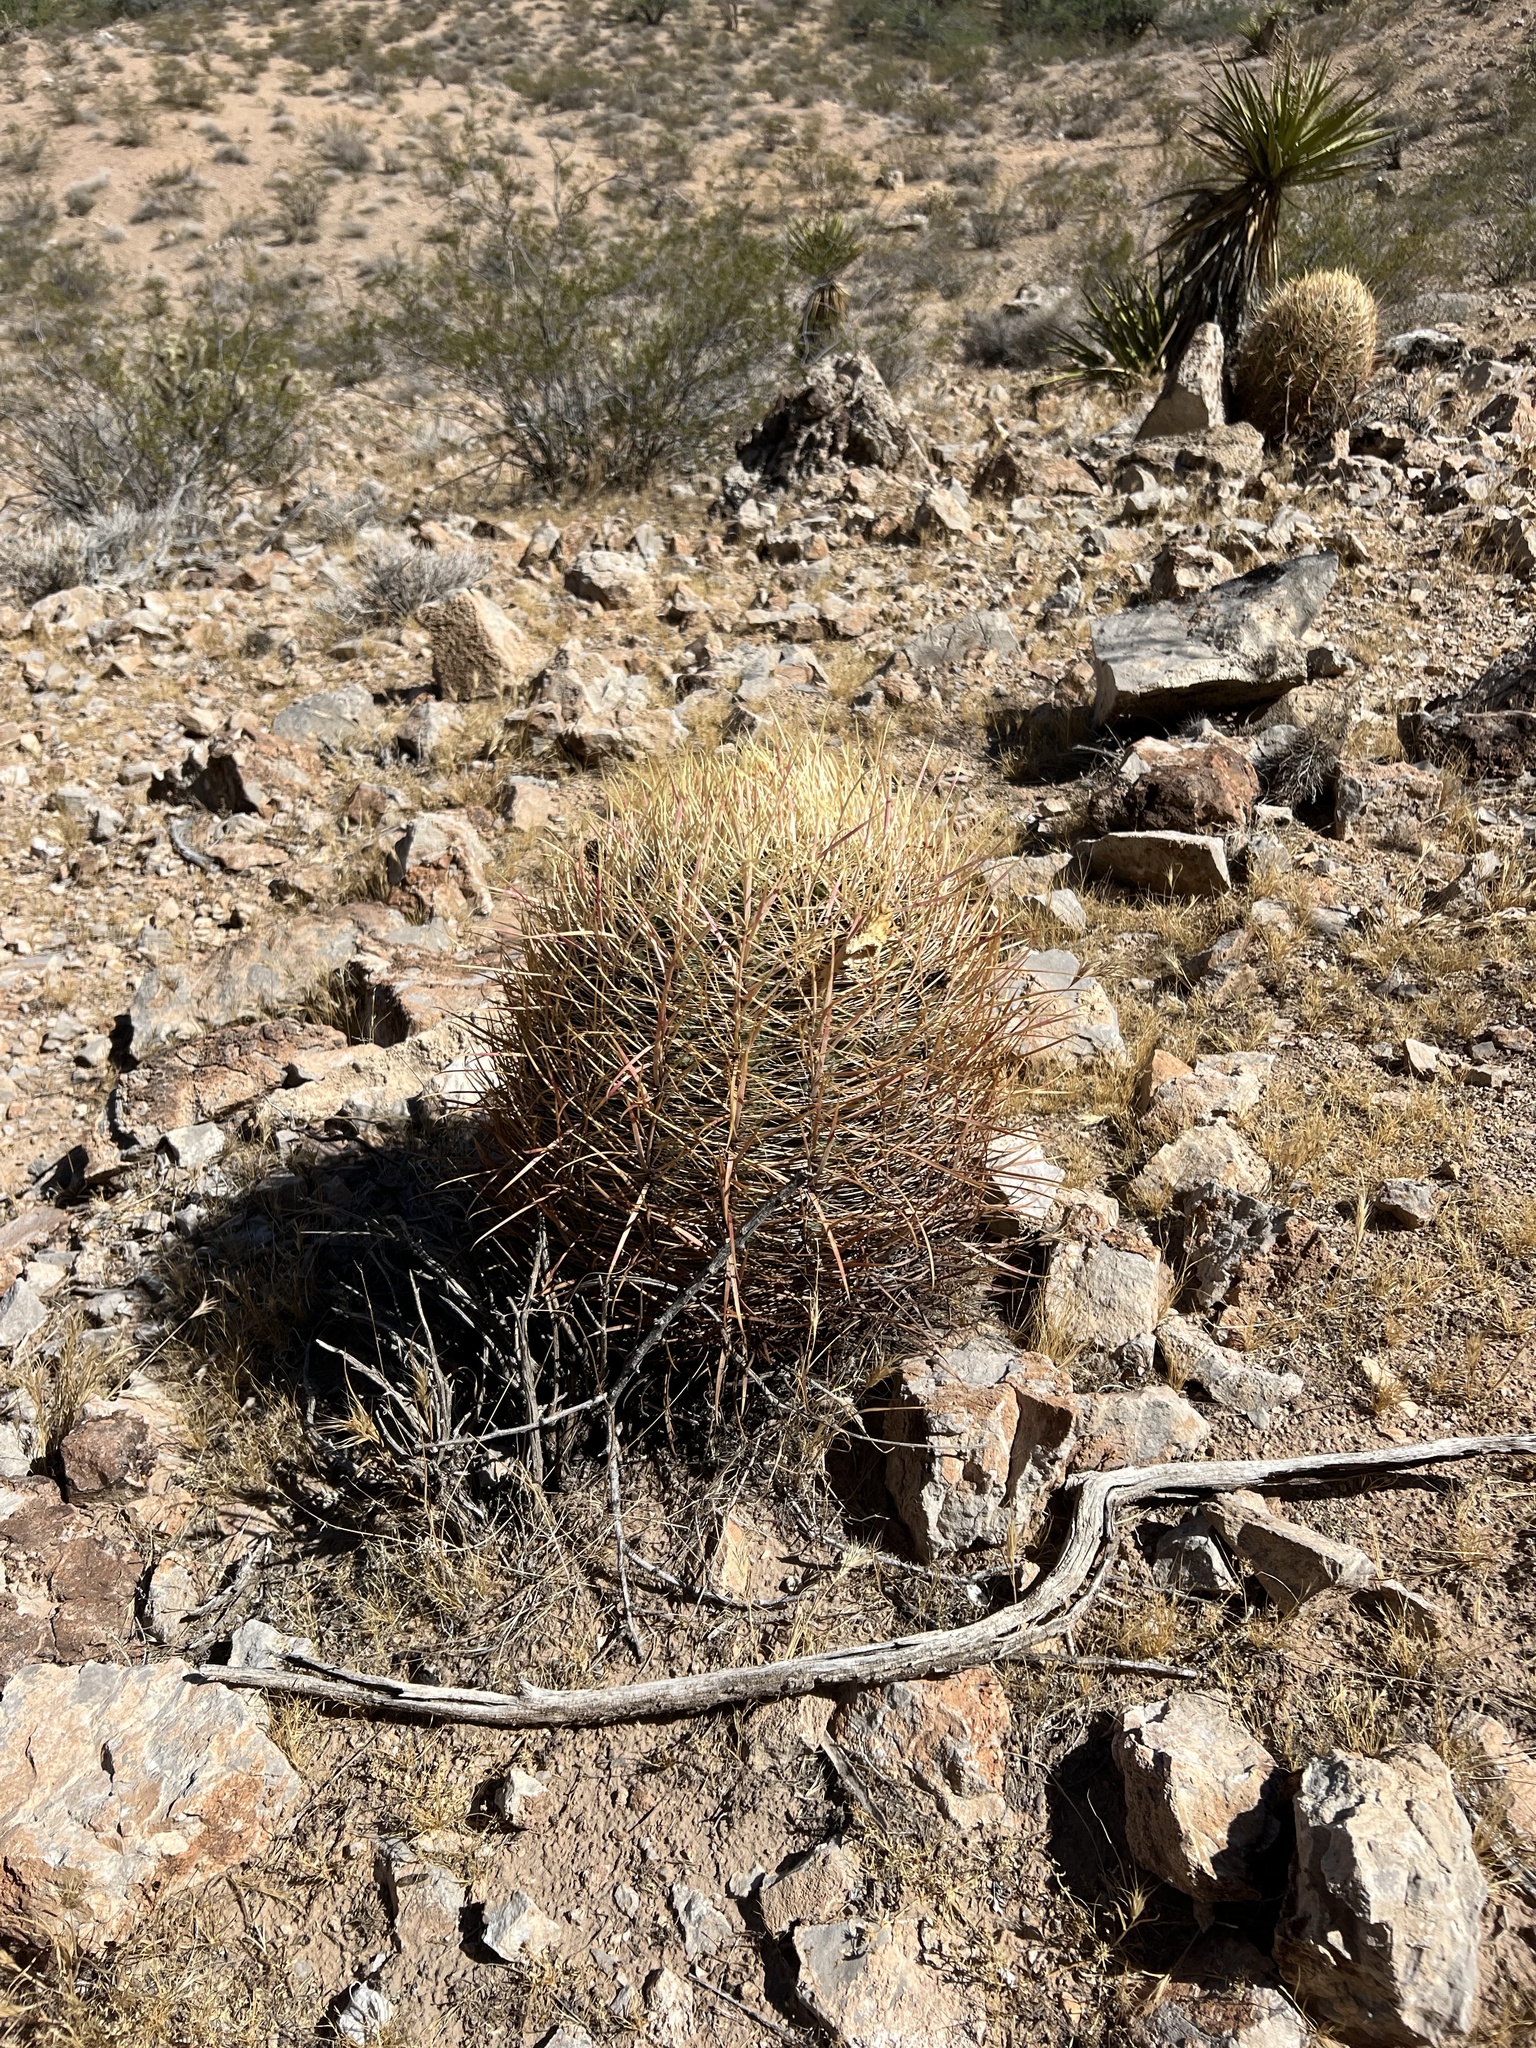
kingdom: Plantae
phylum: Tracheophyta
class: Magnoliopsida
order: Caryophyllales
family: Cactaceae
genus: Ferocactus
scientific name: Ferocactus cylindraceus
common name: California barrel cactus
